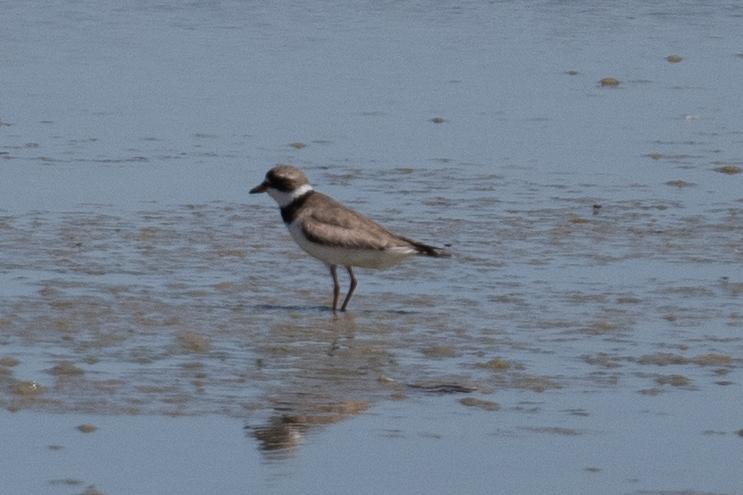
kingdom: Animalia
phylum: Chordata
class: Aves
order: Charadriiformes
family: Charadriidae
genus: Charadrius
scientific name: Charadrius semipalmatus
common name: Semipalmated plover
